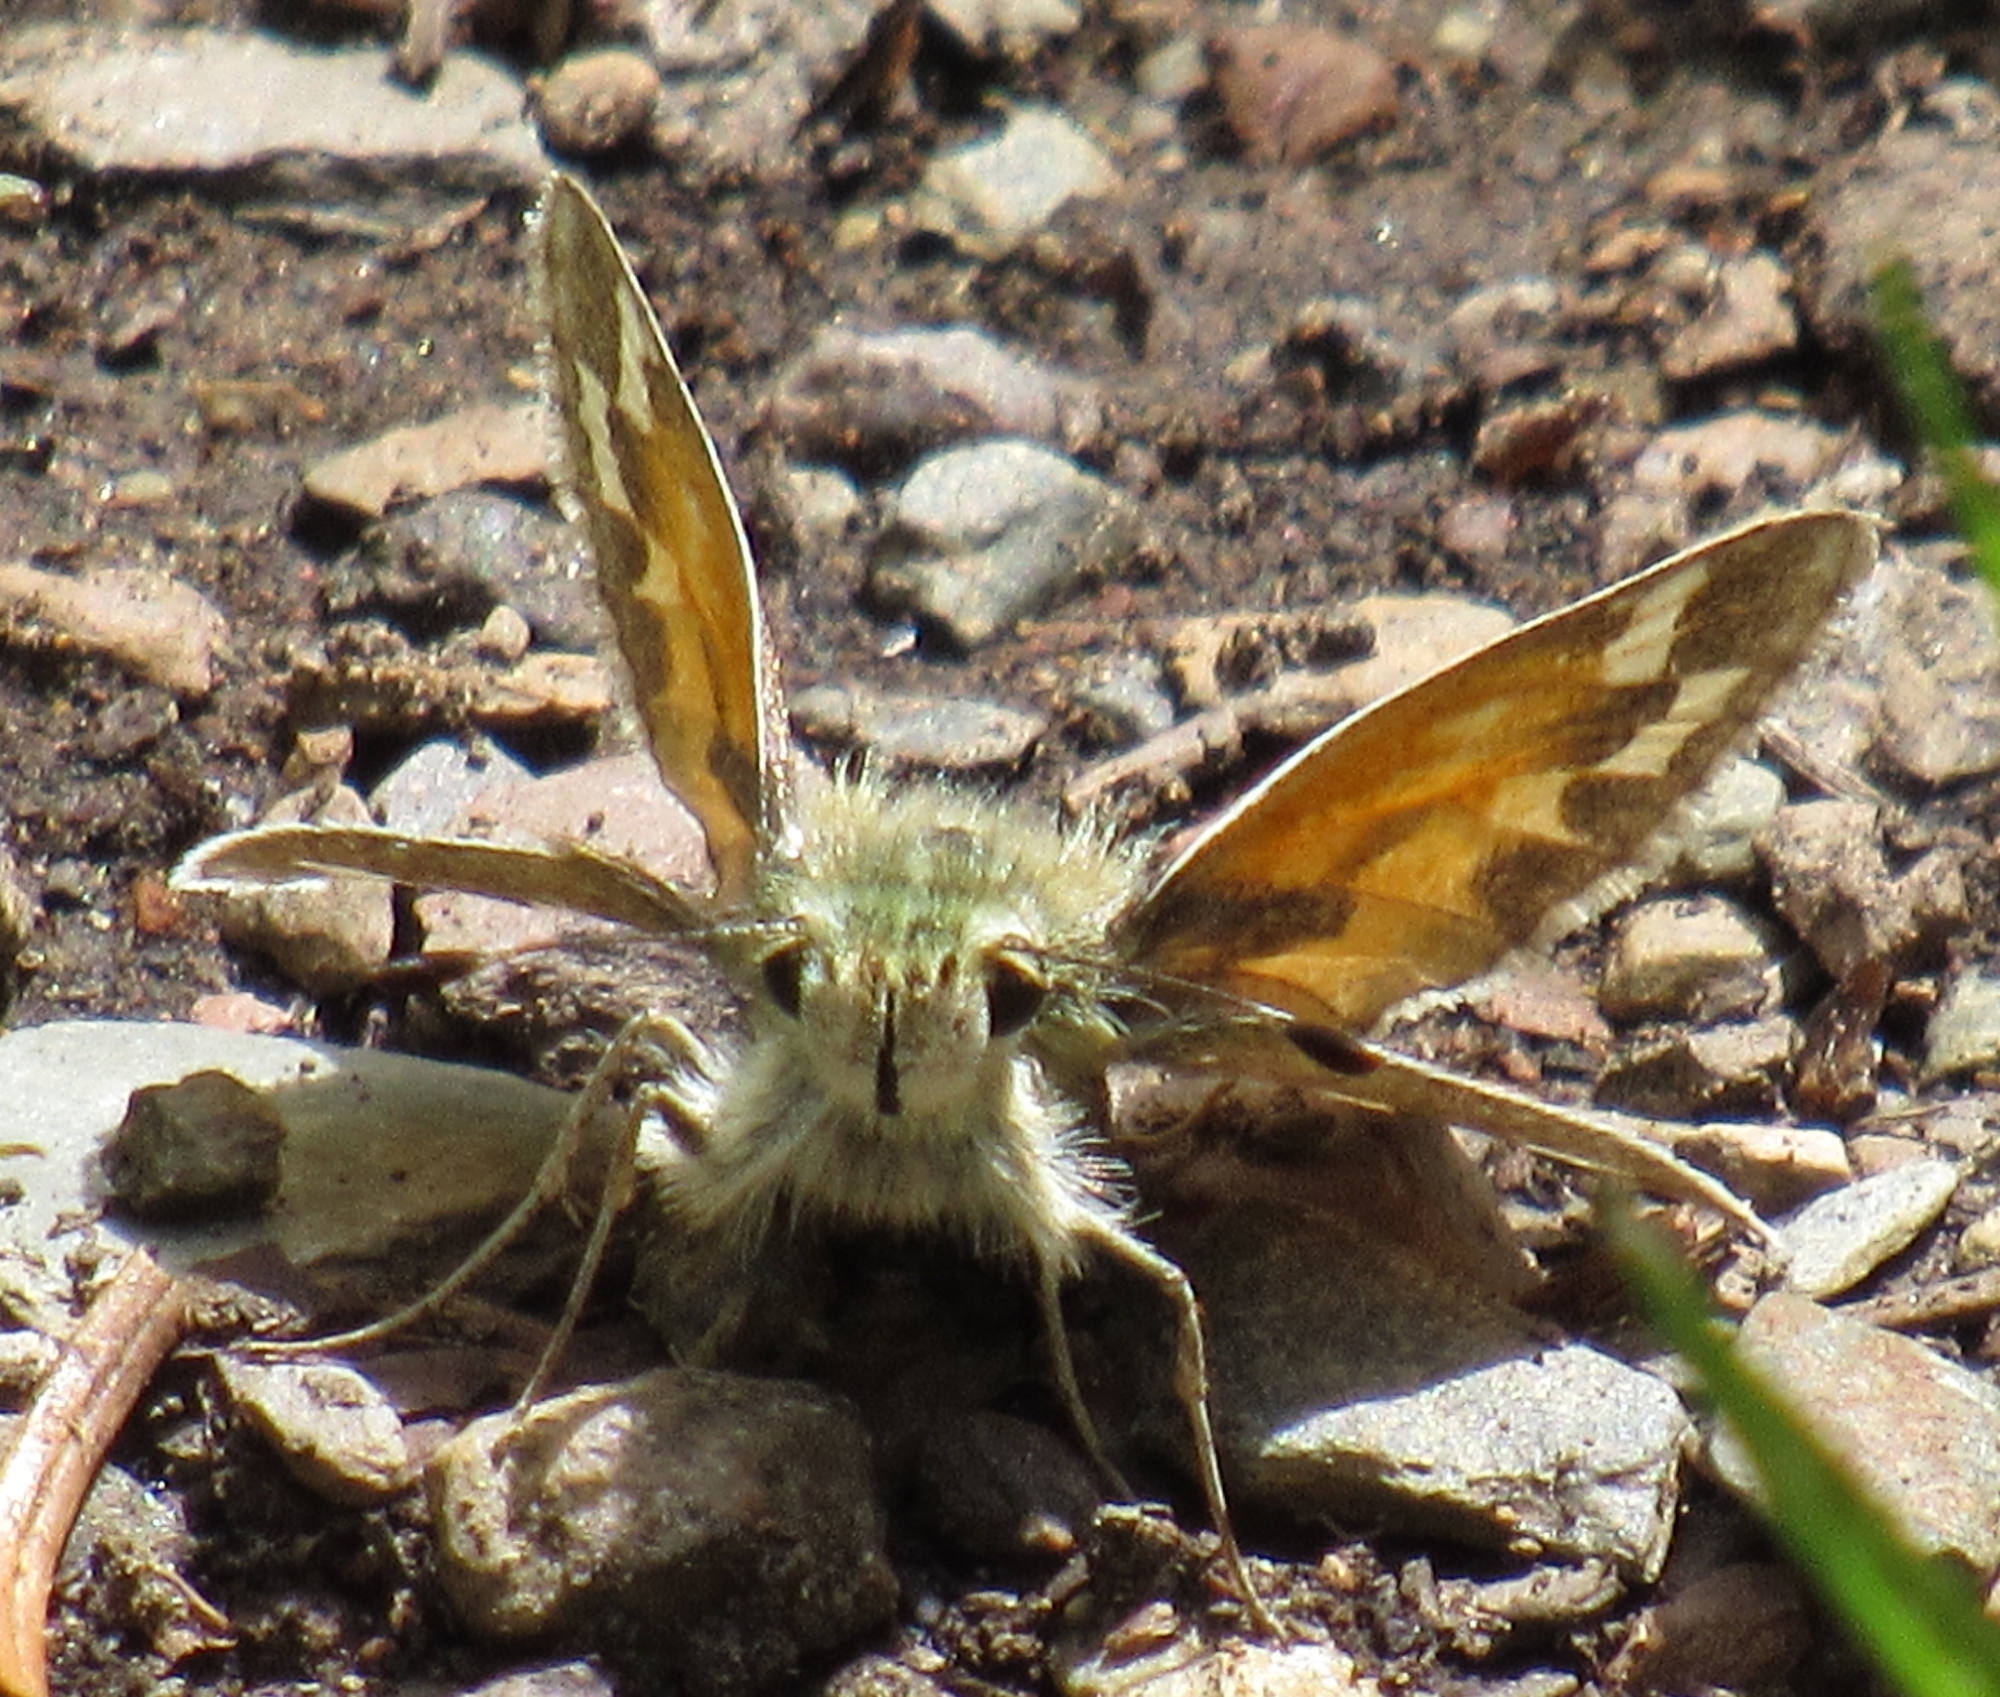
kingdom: Animalia
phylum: Arthropoda
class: Insecta
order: Lepidoptera
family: Hesperiidae
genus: Hesperia
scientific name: Hesperia juba
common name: Juba skipper
